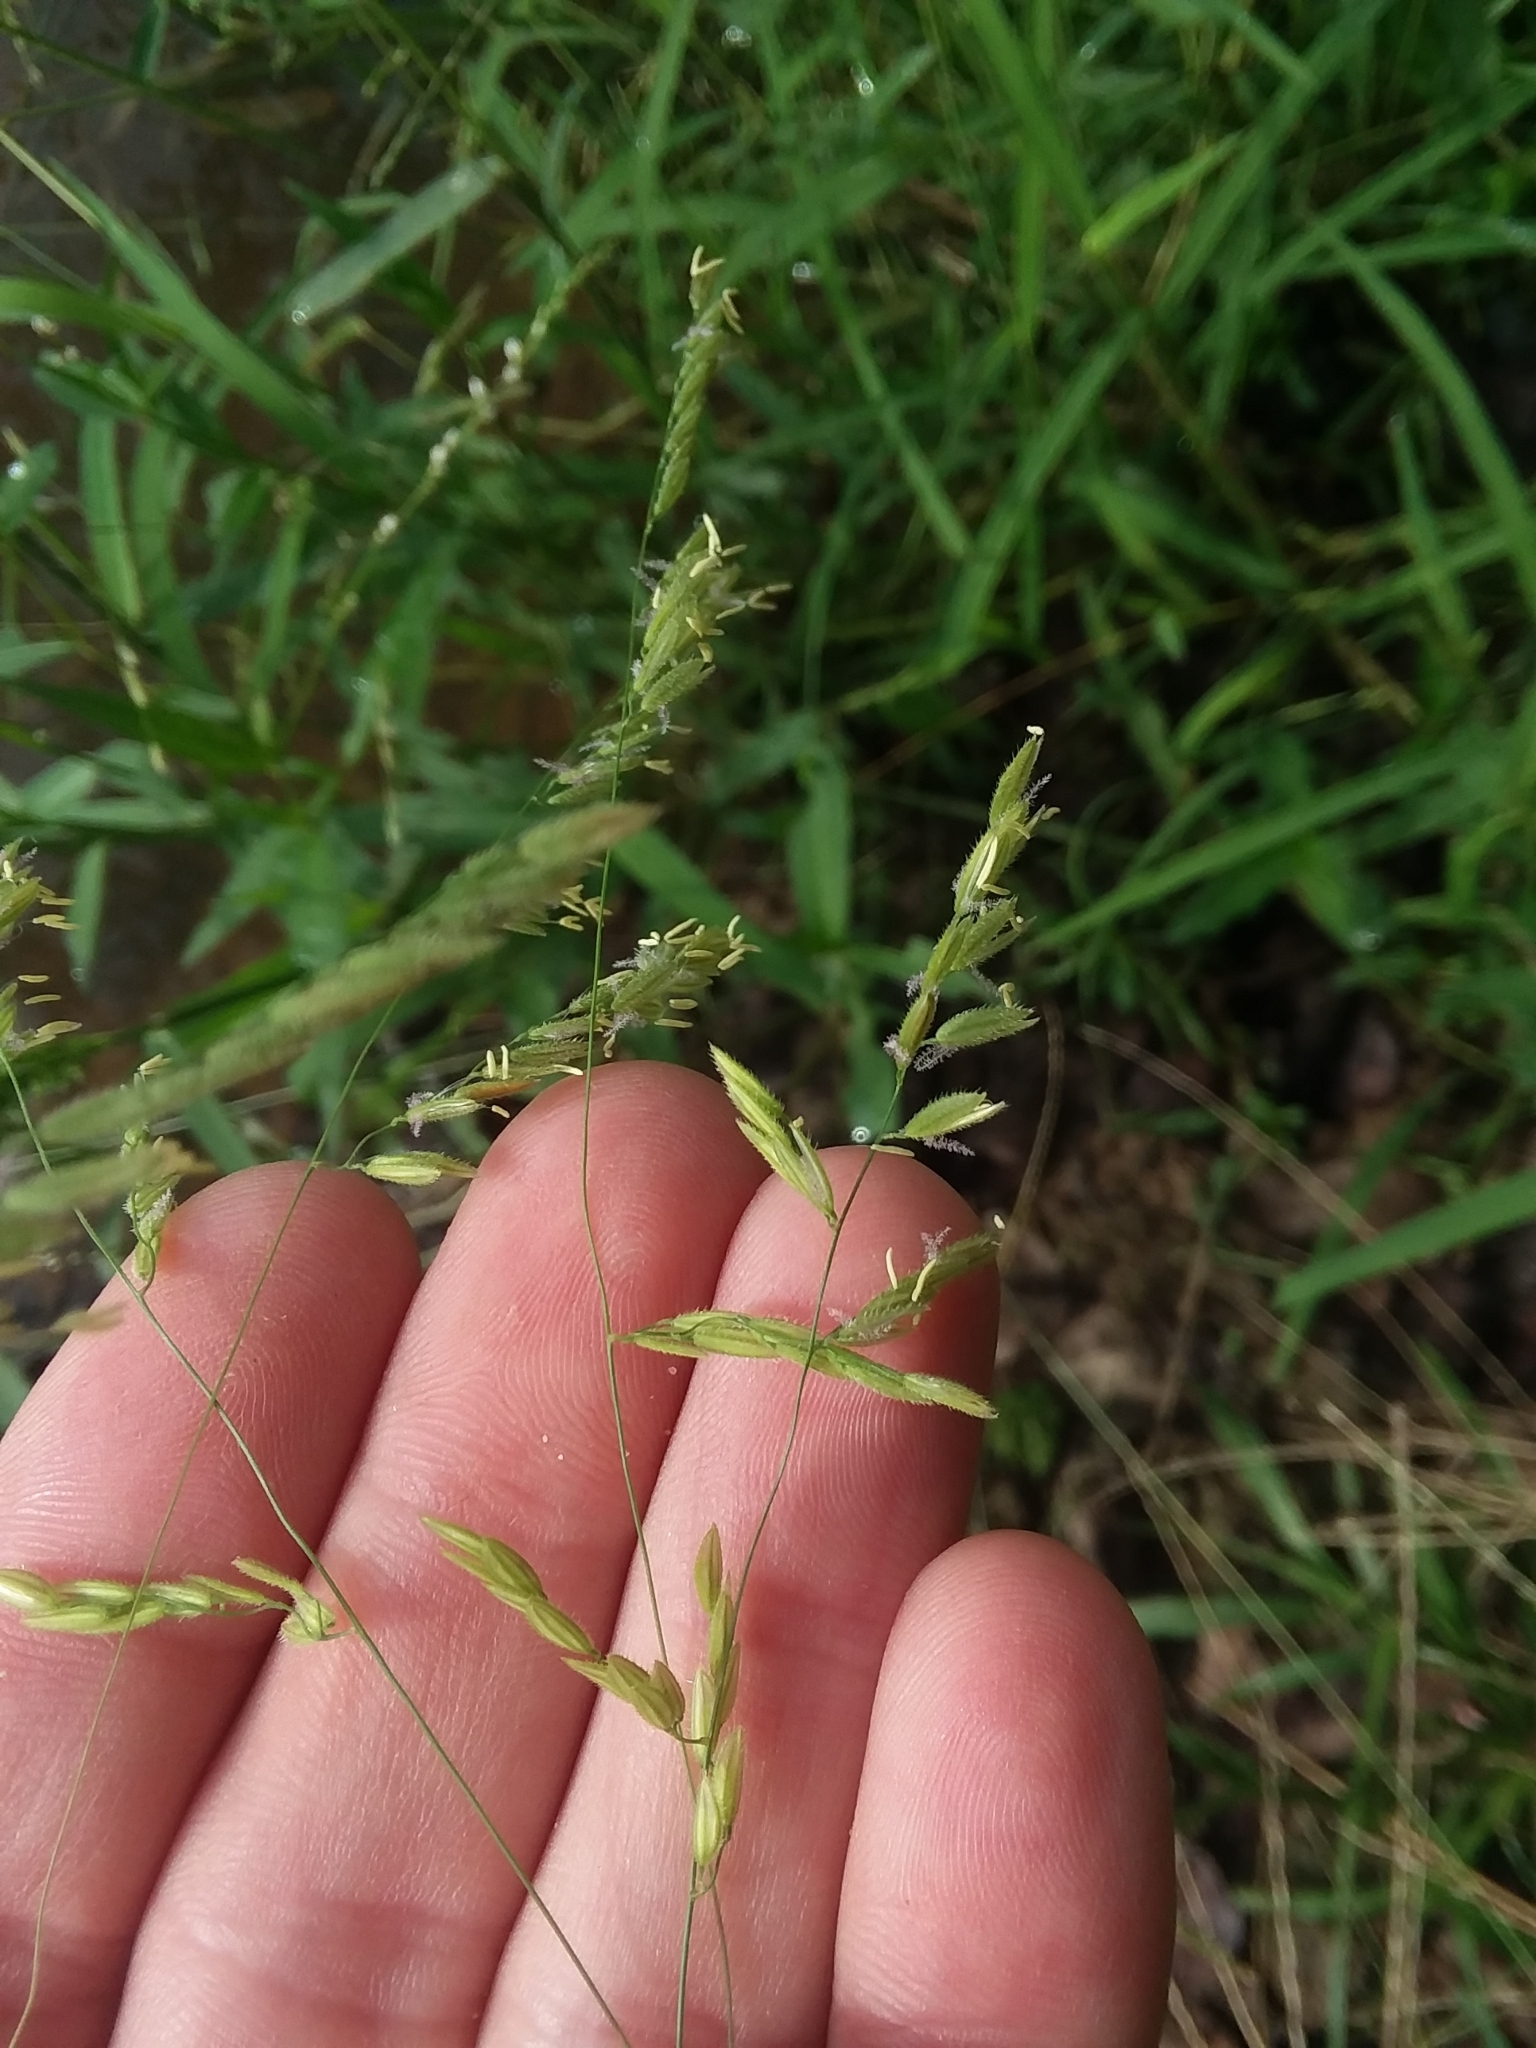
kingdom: Plantae
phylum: Tracheophyta
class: Liliopsida
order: Poales
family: Poaceae
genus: Leersia
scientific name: Leersia oryzoides
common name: Cut-grass
